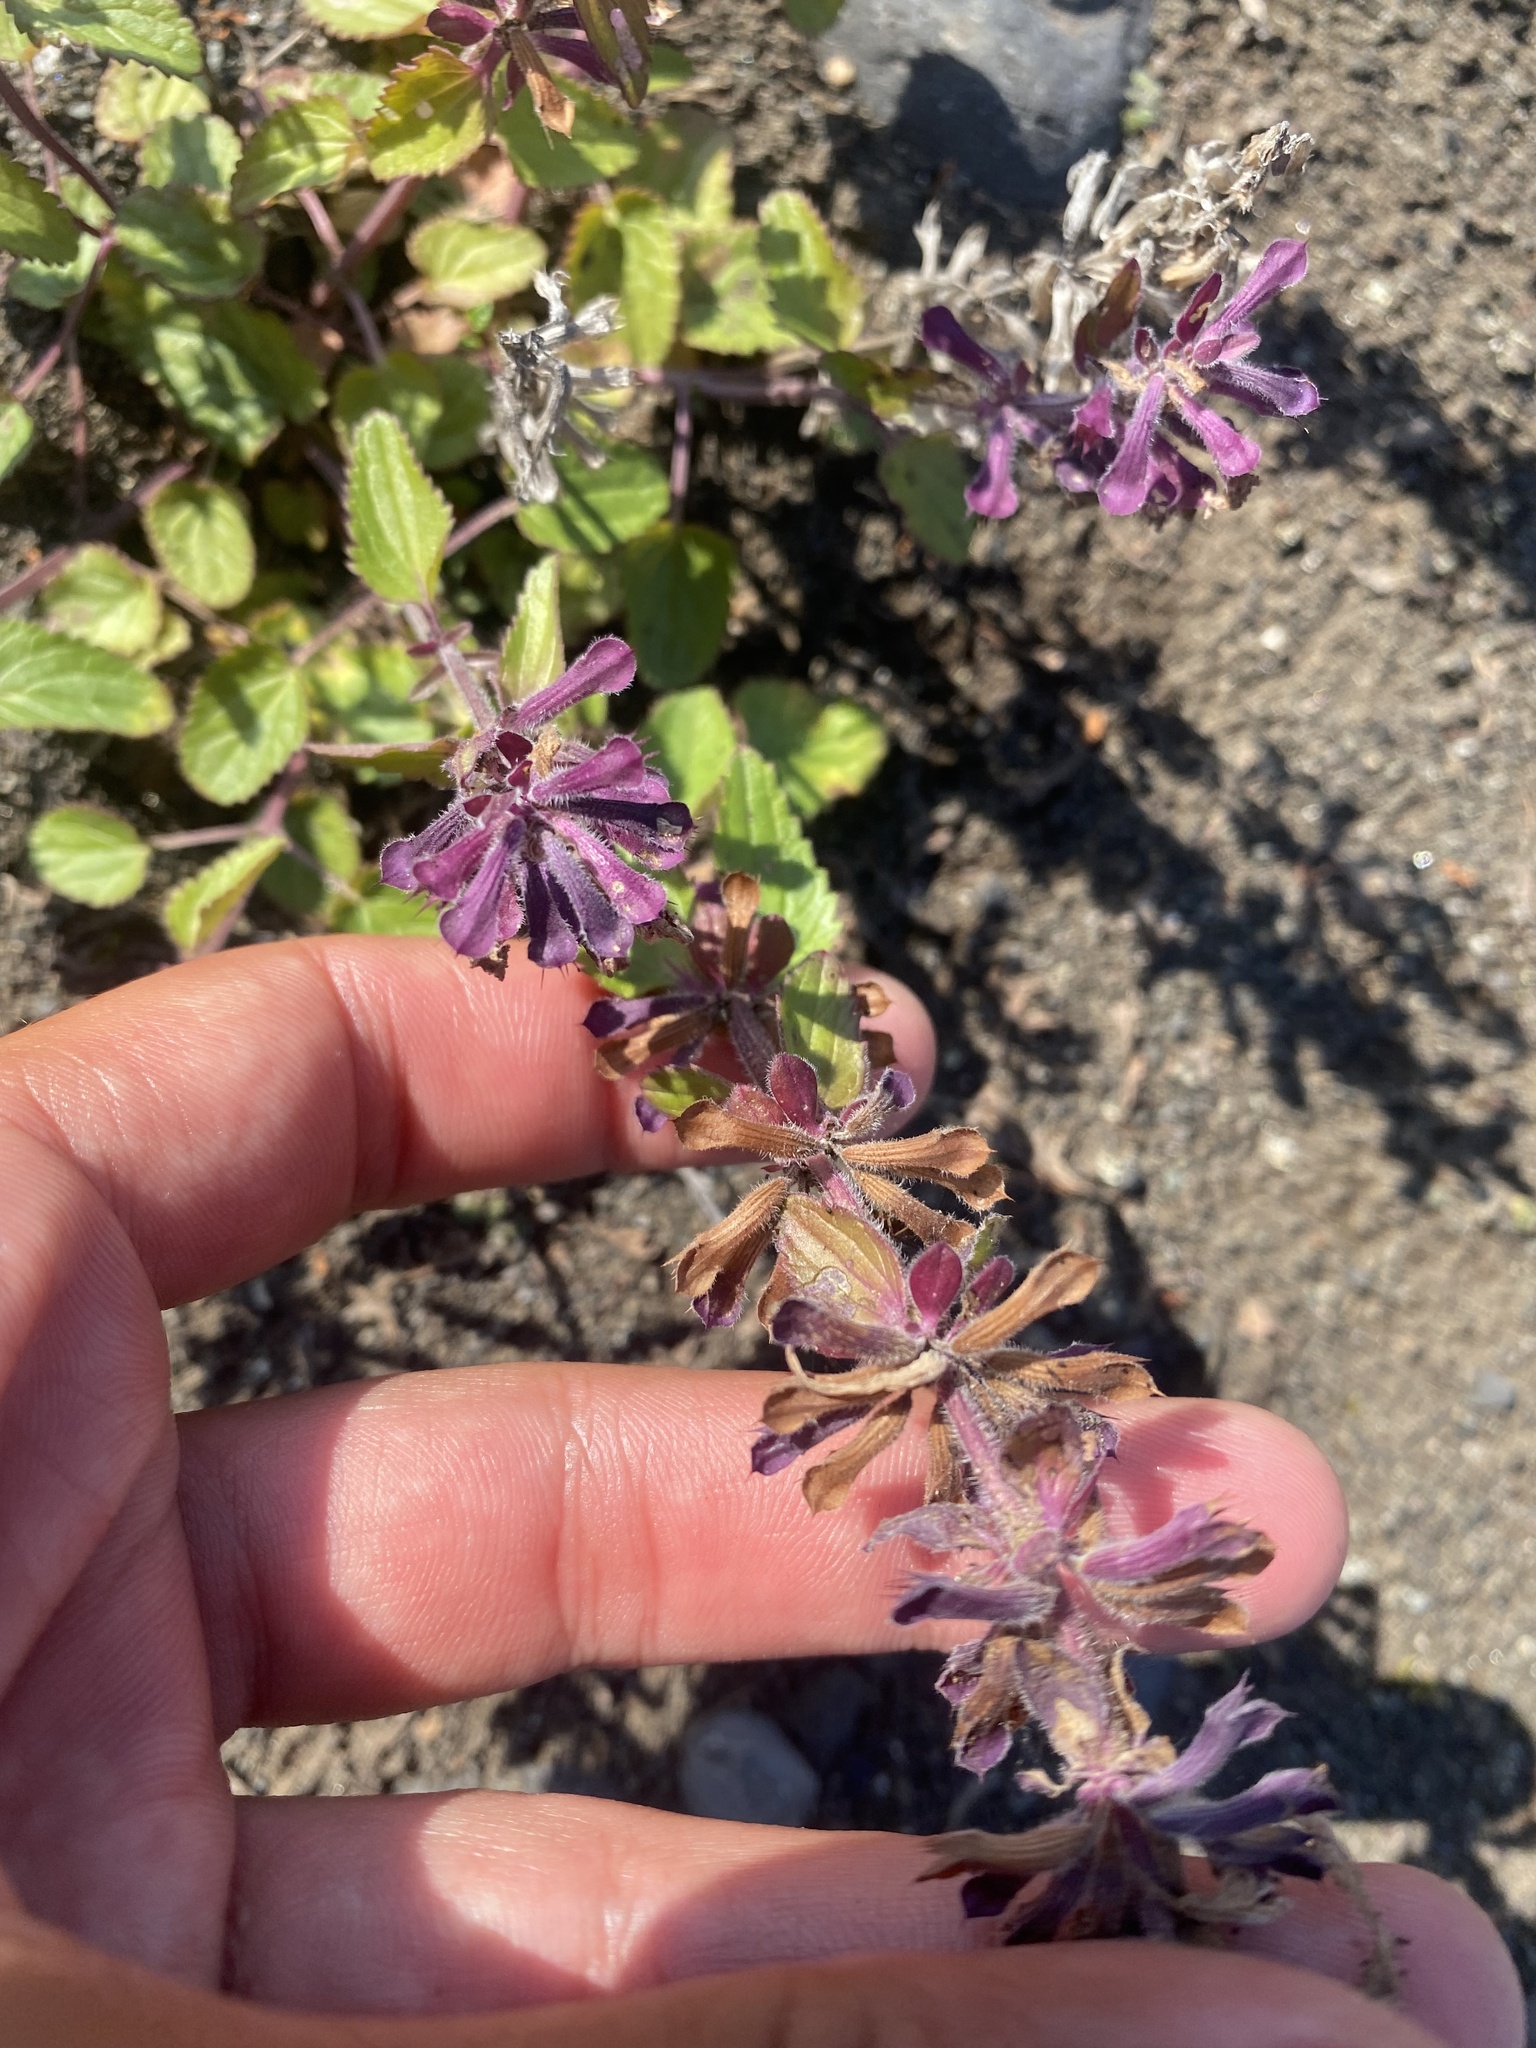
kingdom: Plantae
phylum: Tracheophyta
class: Magnoliopsida
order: Lamiales
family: Lamiaceae
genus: Dracocephalum
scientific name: Dracocephalum nutans
